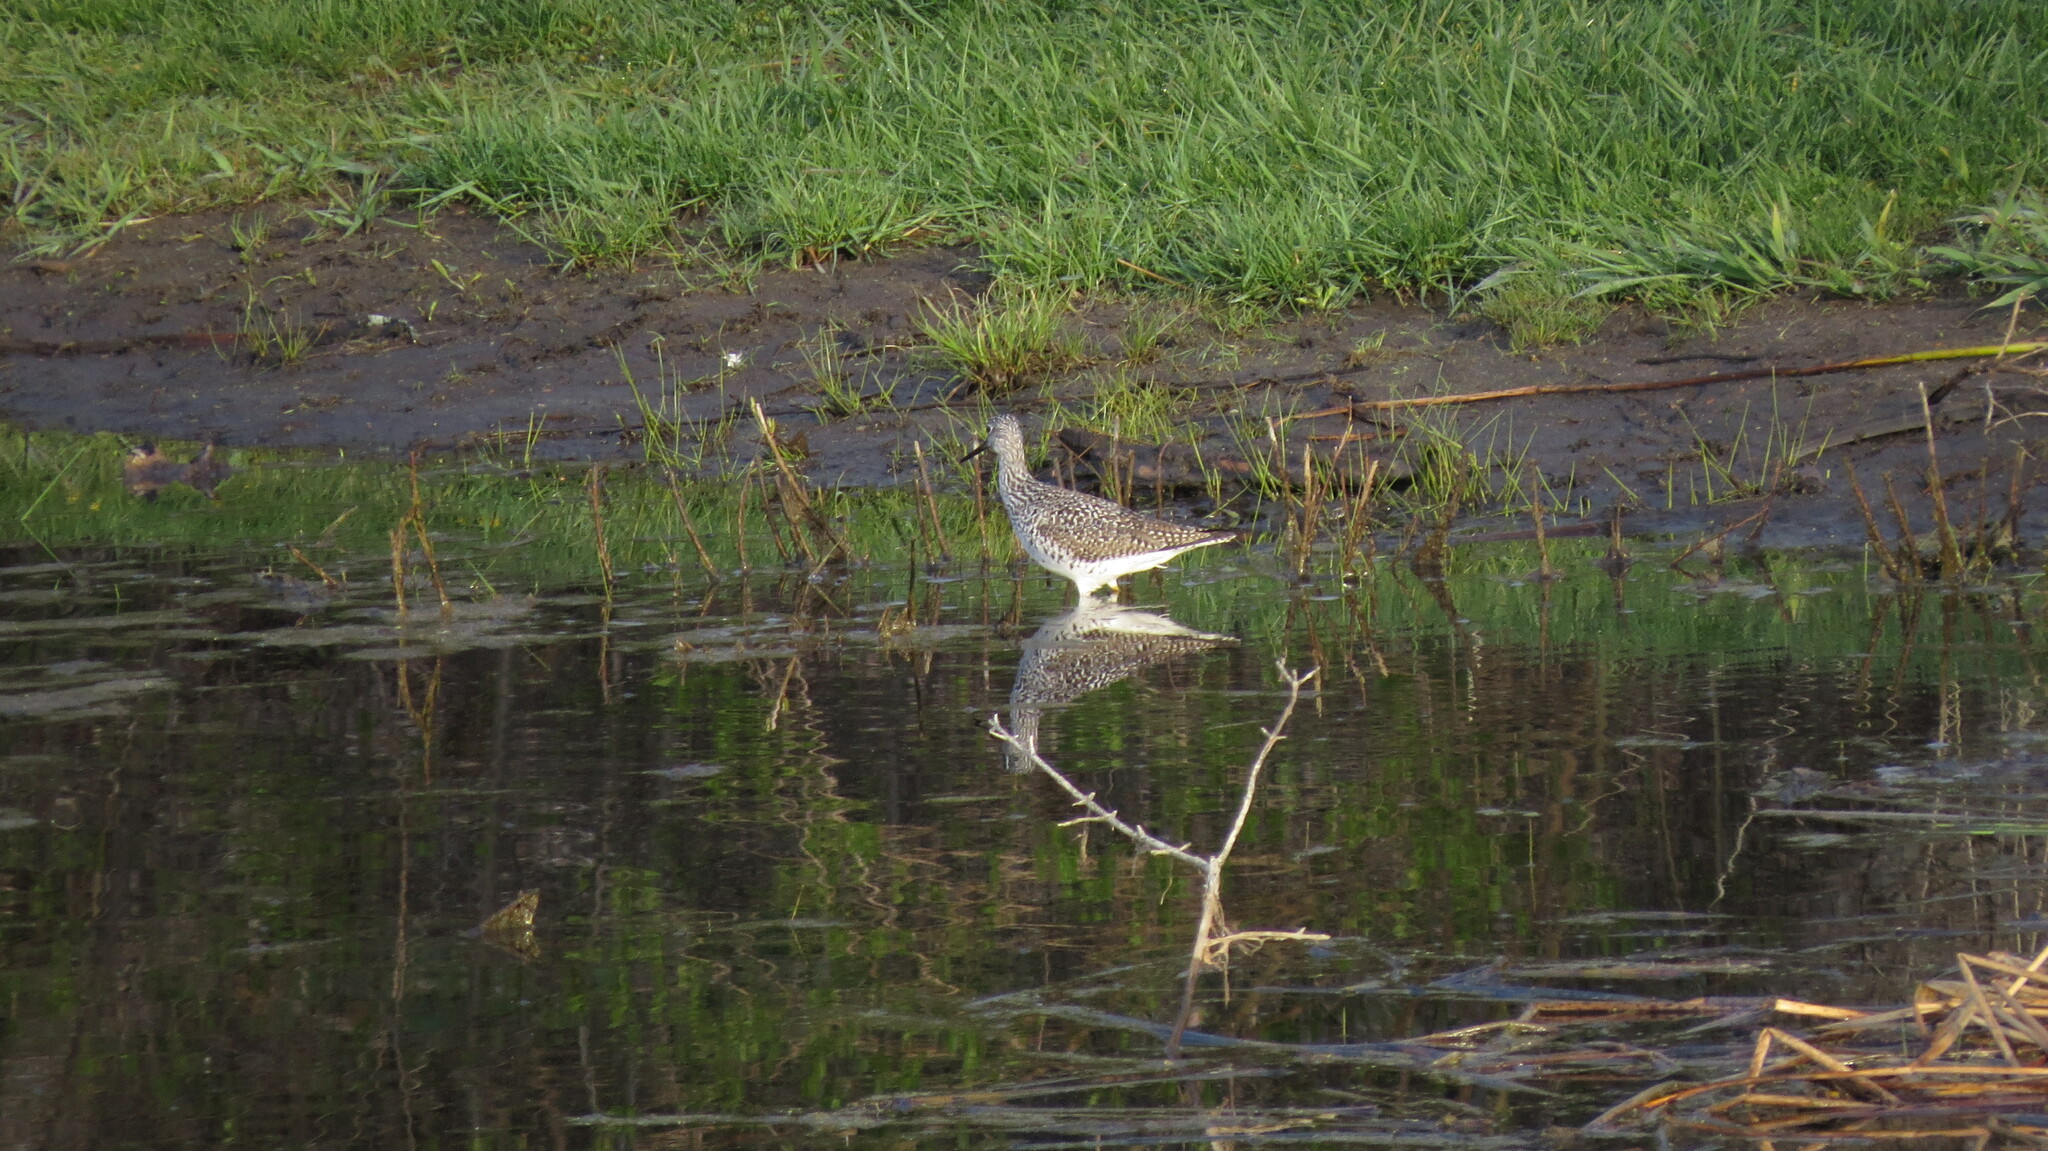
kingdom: Animalia
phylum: Chordata
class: Aves
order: Charadriiformes
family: Scolopacidae
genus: Tringa
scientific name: Tringa melanoleuca
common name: Greater yellowlegs
